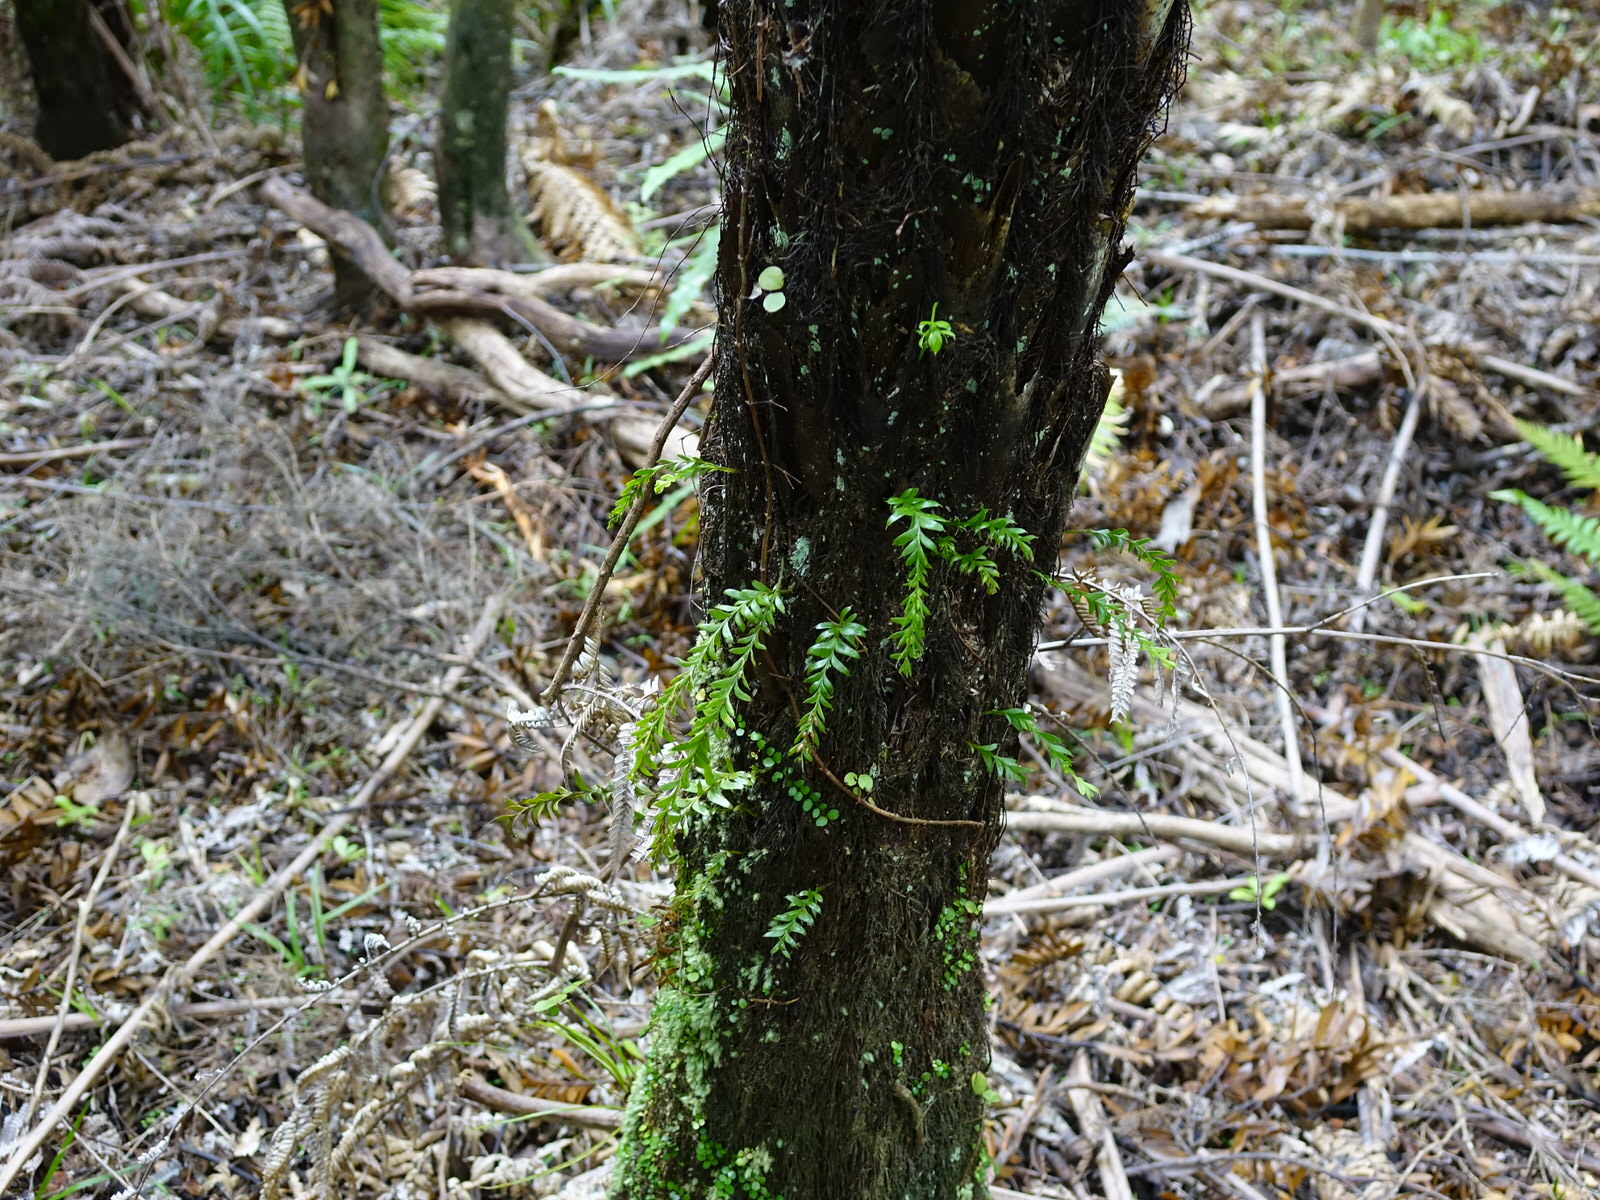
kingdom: Plantae
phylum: Tracheophyta
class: Polypodiopsida
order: Psilotales
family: Psilotaceae
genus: Tmesipteris
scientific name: Tmesipteris tannensis
